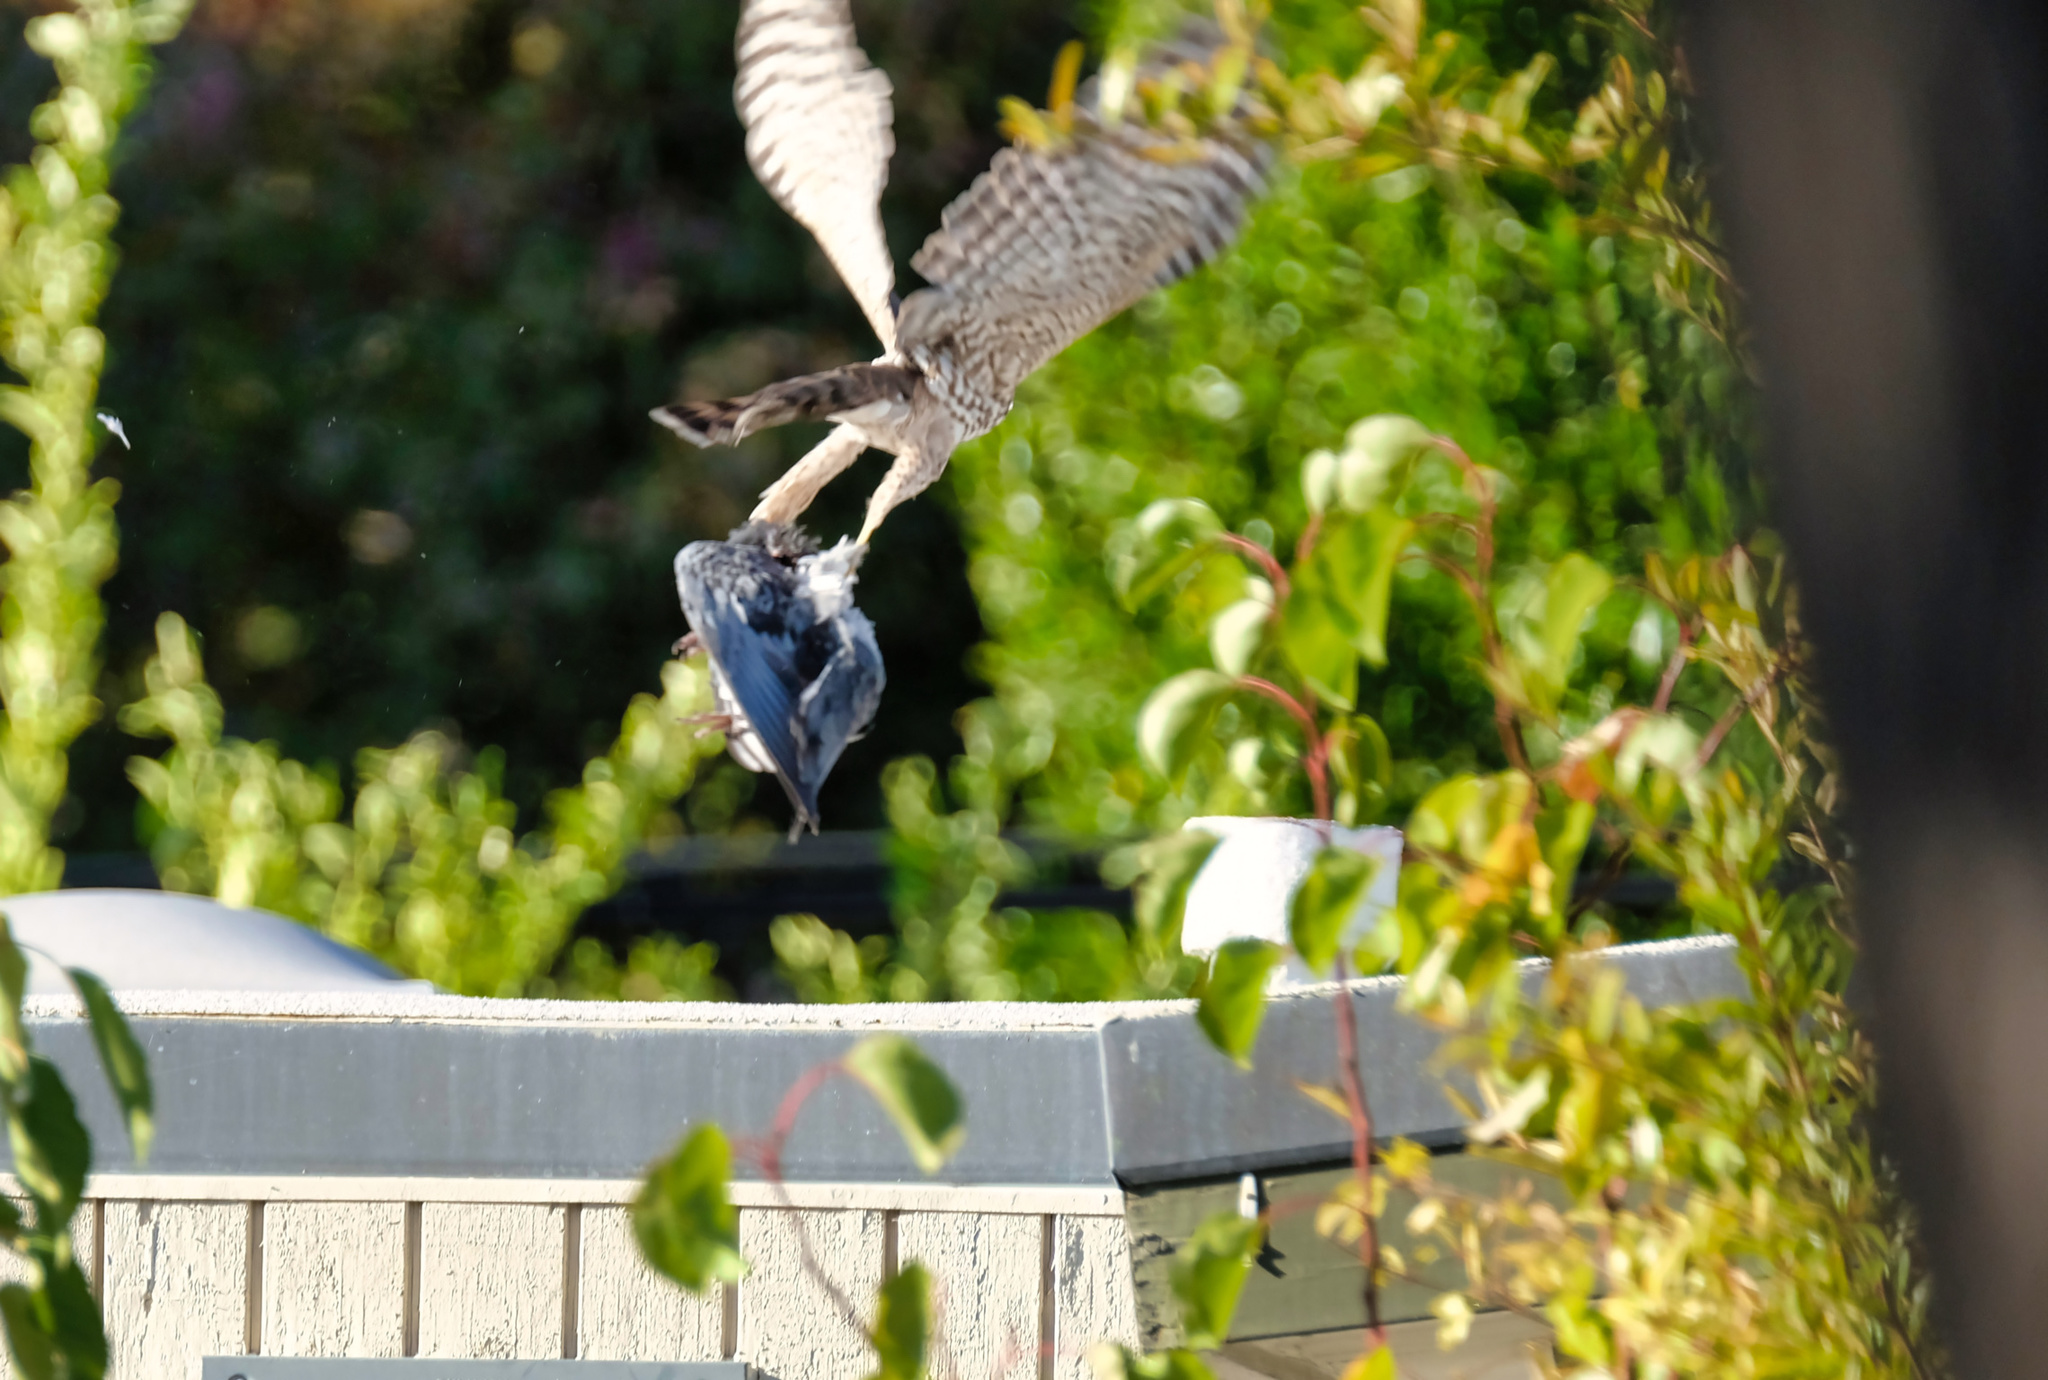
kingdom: Animalia
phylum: Chordata
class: Aves
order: Accipitriformes
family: Accipitridae
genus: Accipiter
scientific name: Accipiter cooperii
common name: Cooper's hawk
